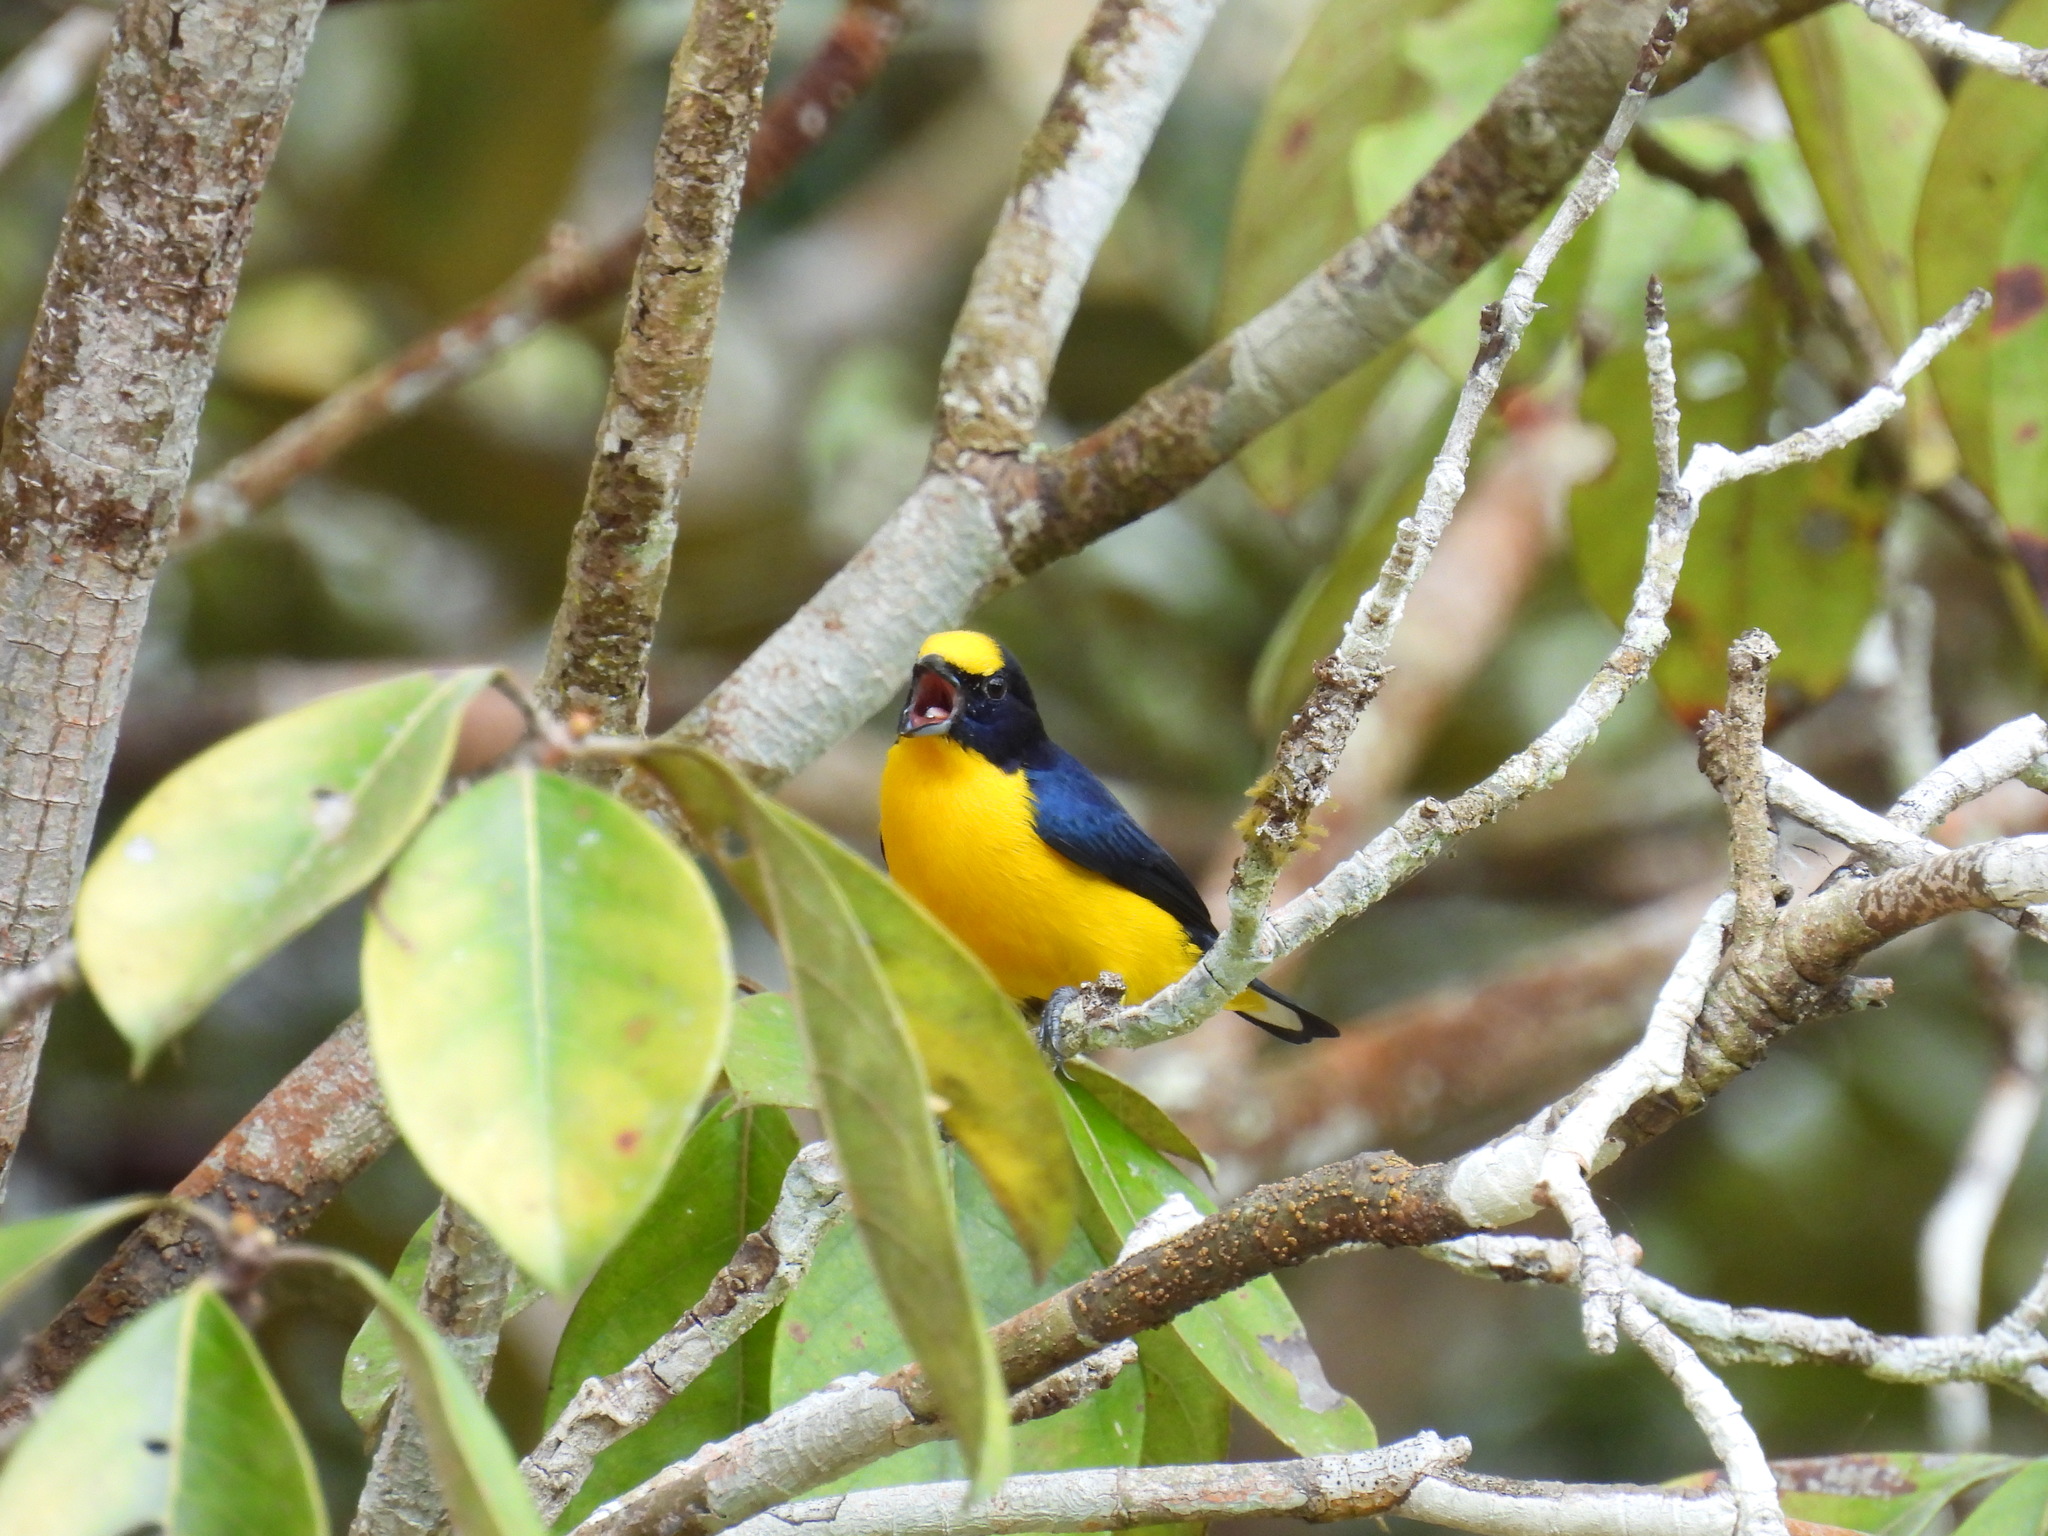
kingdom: Animalia
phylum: Chordata
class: Aves
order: Passeriformes
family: Fringillidae
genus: Euphonia
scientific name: Euphonia laniirostris
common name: Thick-billed euphonia
